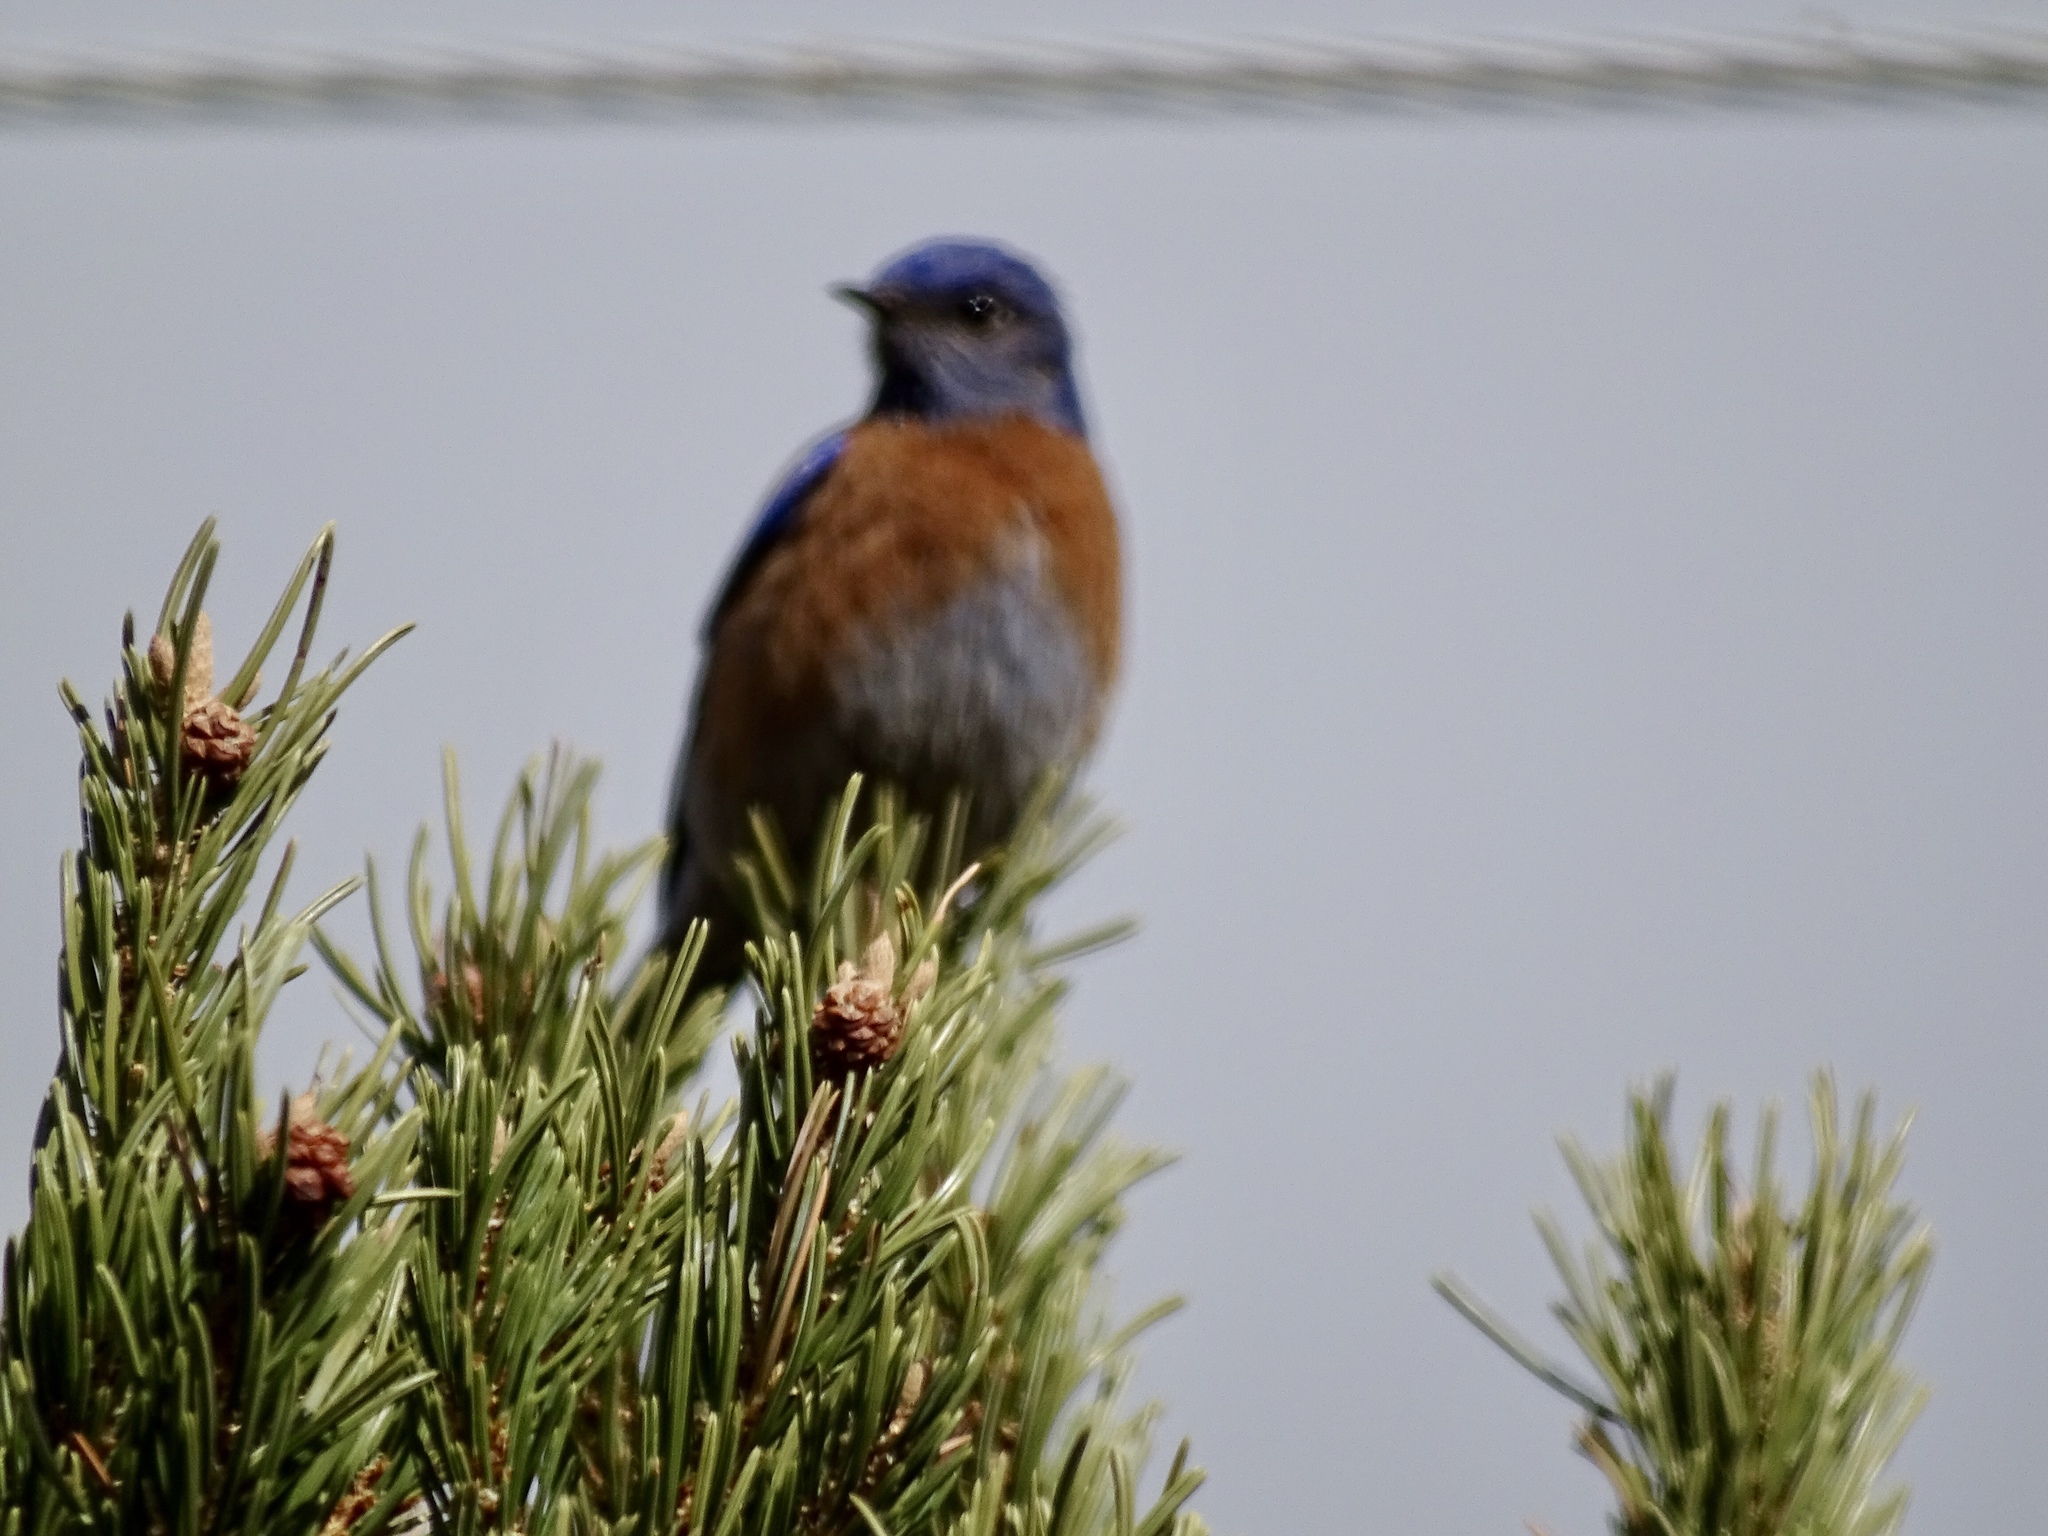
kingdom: Animalia
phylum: Chordata
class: Aves
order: Passeriformes
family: Turdidae
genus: Sialia
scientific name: Sialia mexicana
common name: Western bluebird
